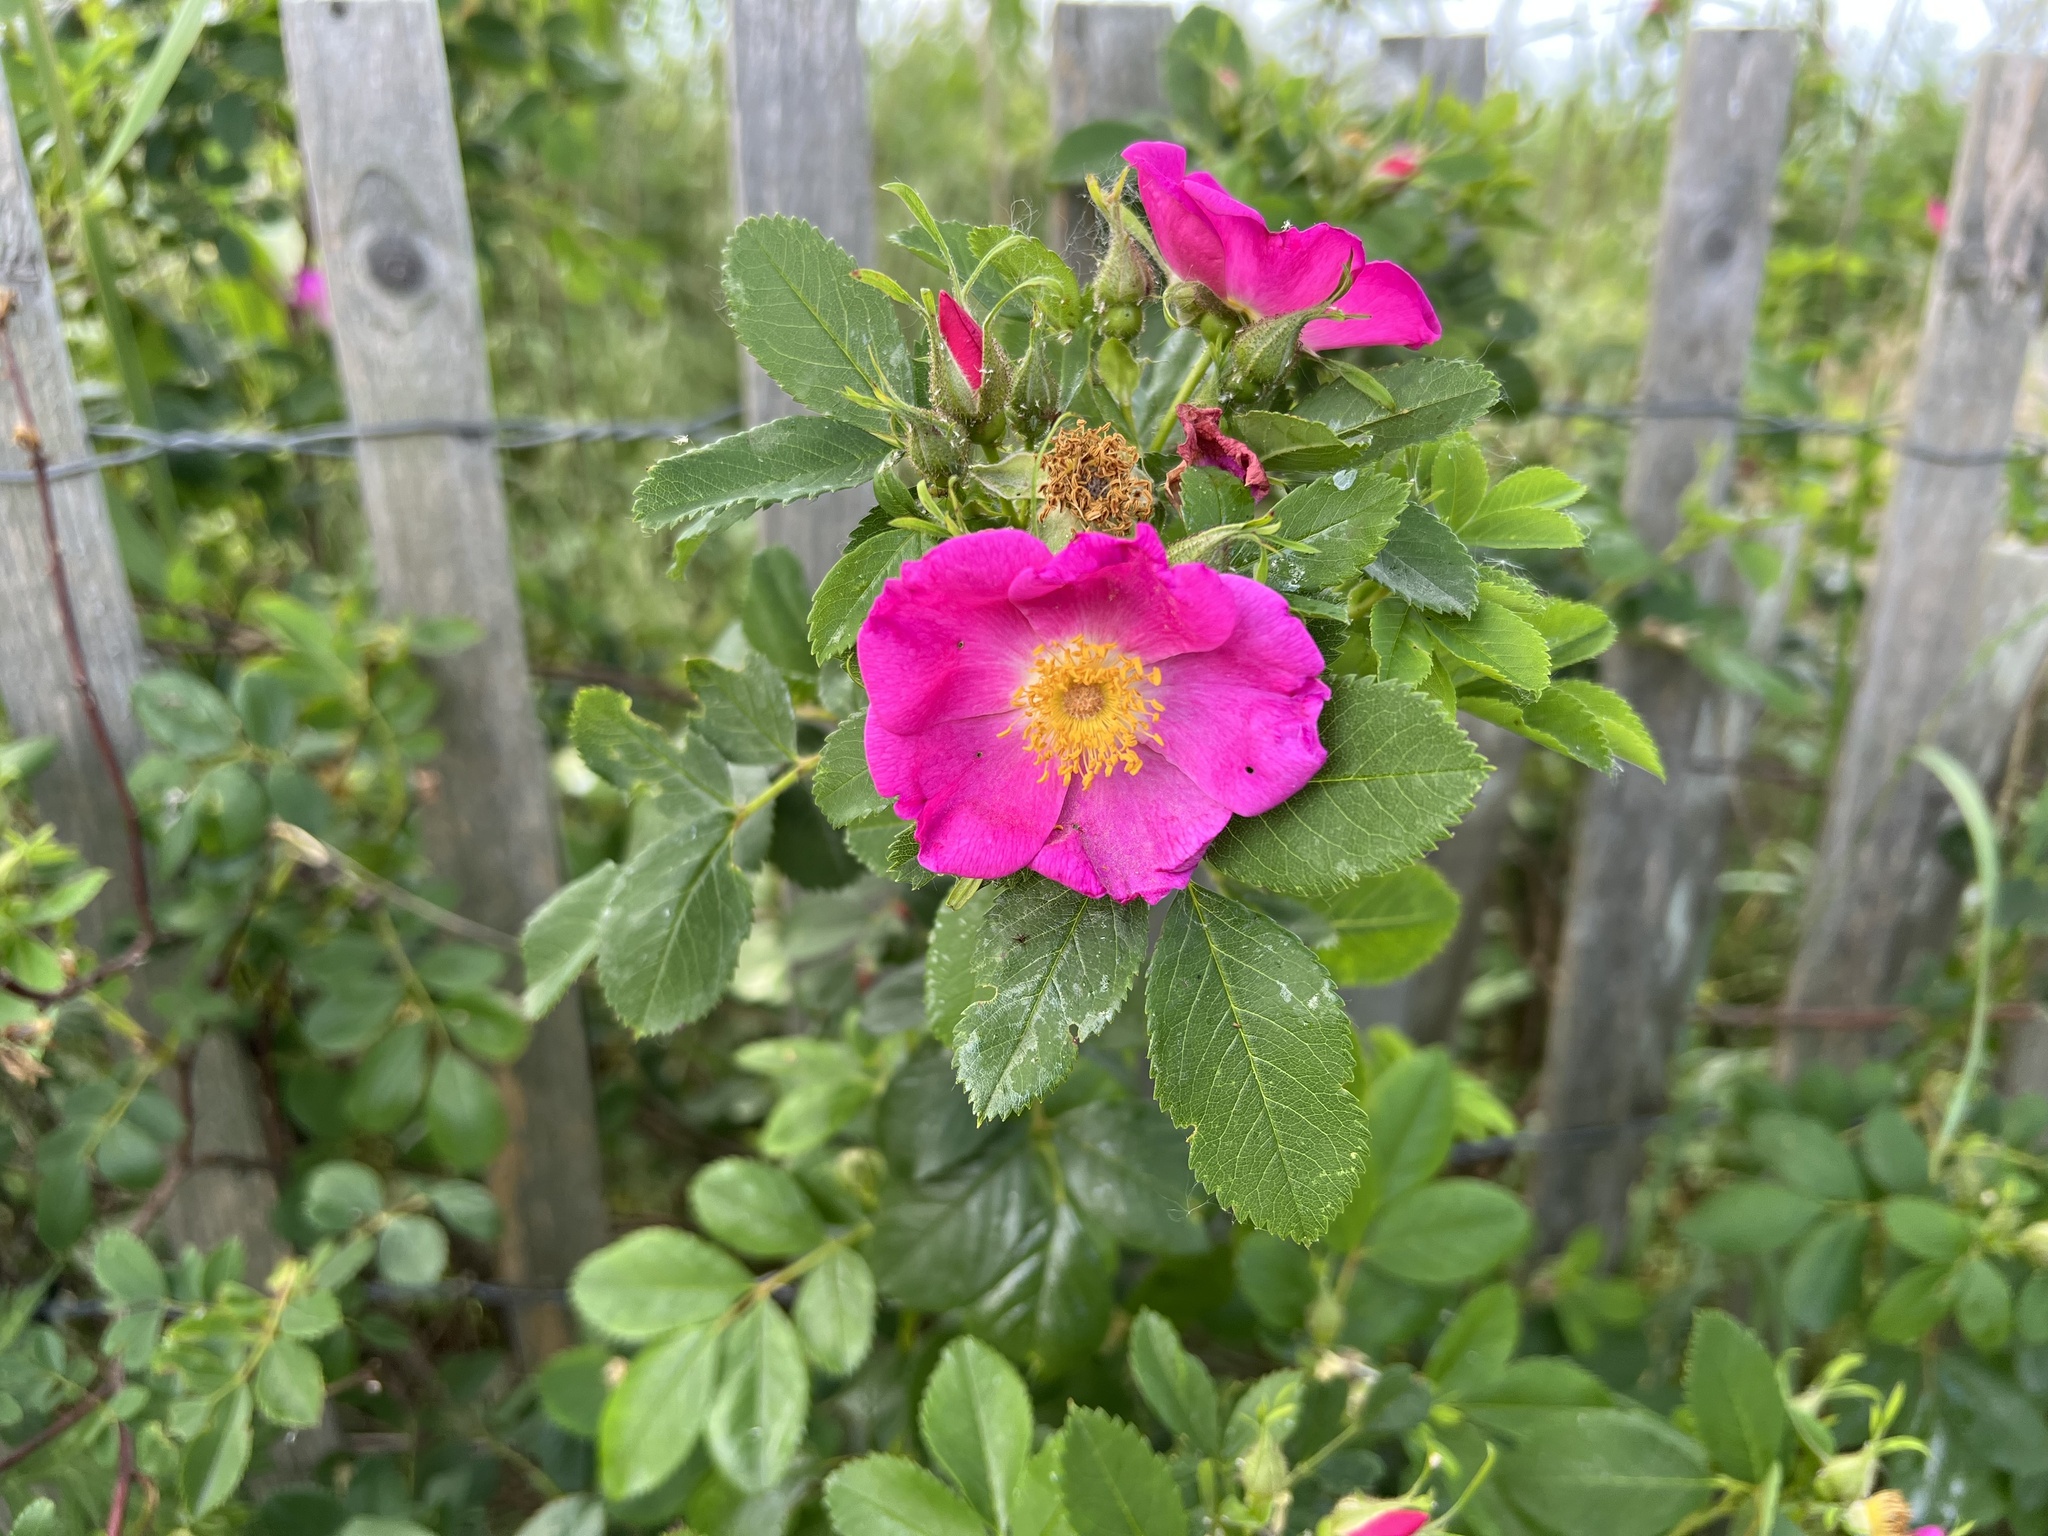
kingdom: Plantae
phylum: Tracheophyta
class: Magnoliopsida
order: Rosales
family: Rosaceae
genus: Rosa
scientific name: Rosa rugosa
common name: Japanese rose
